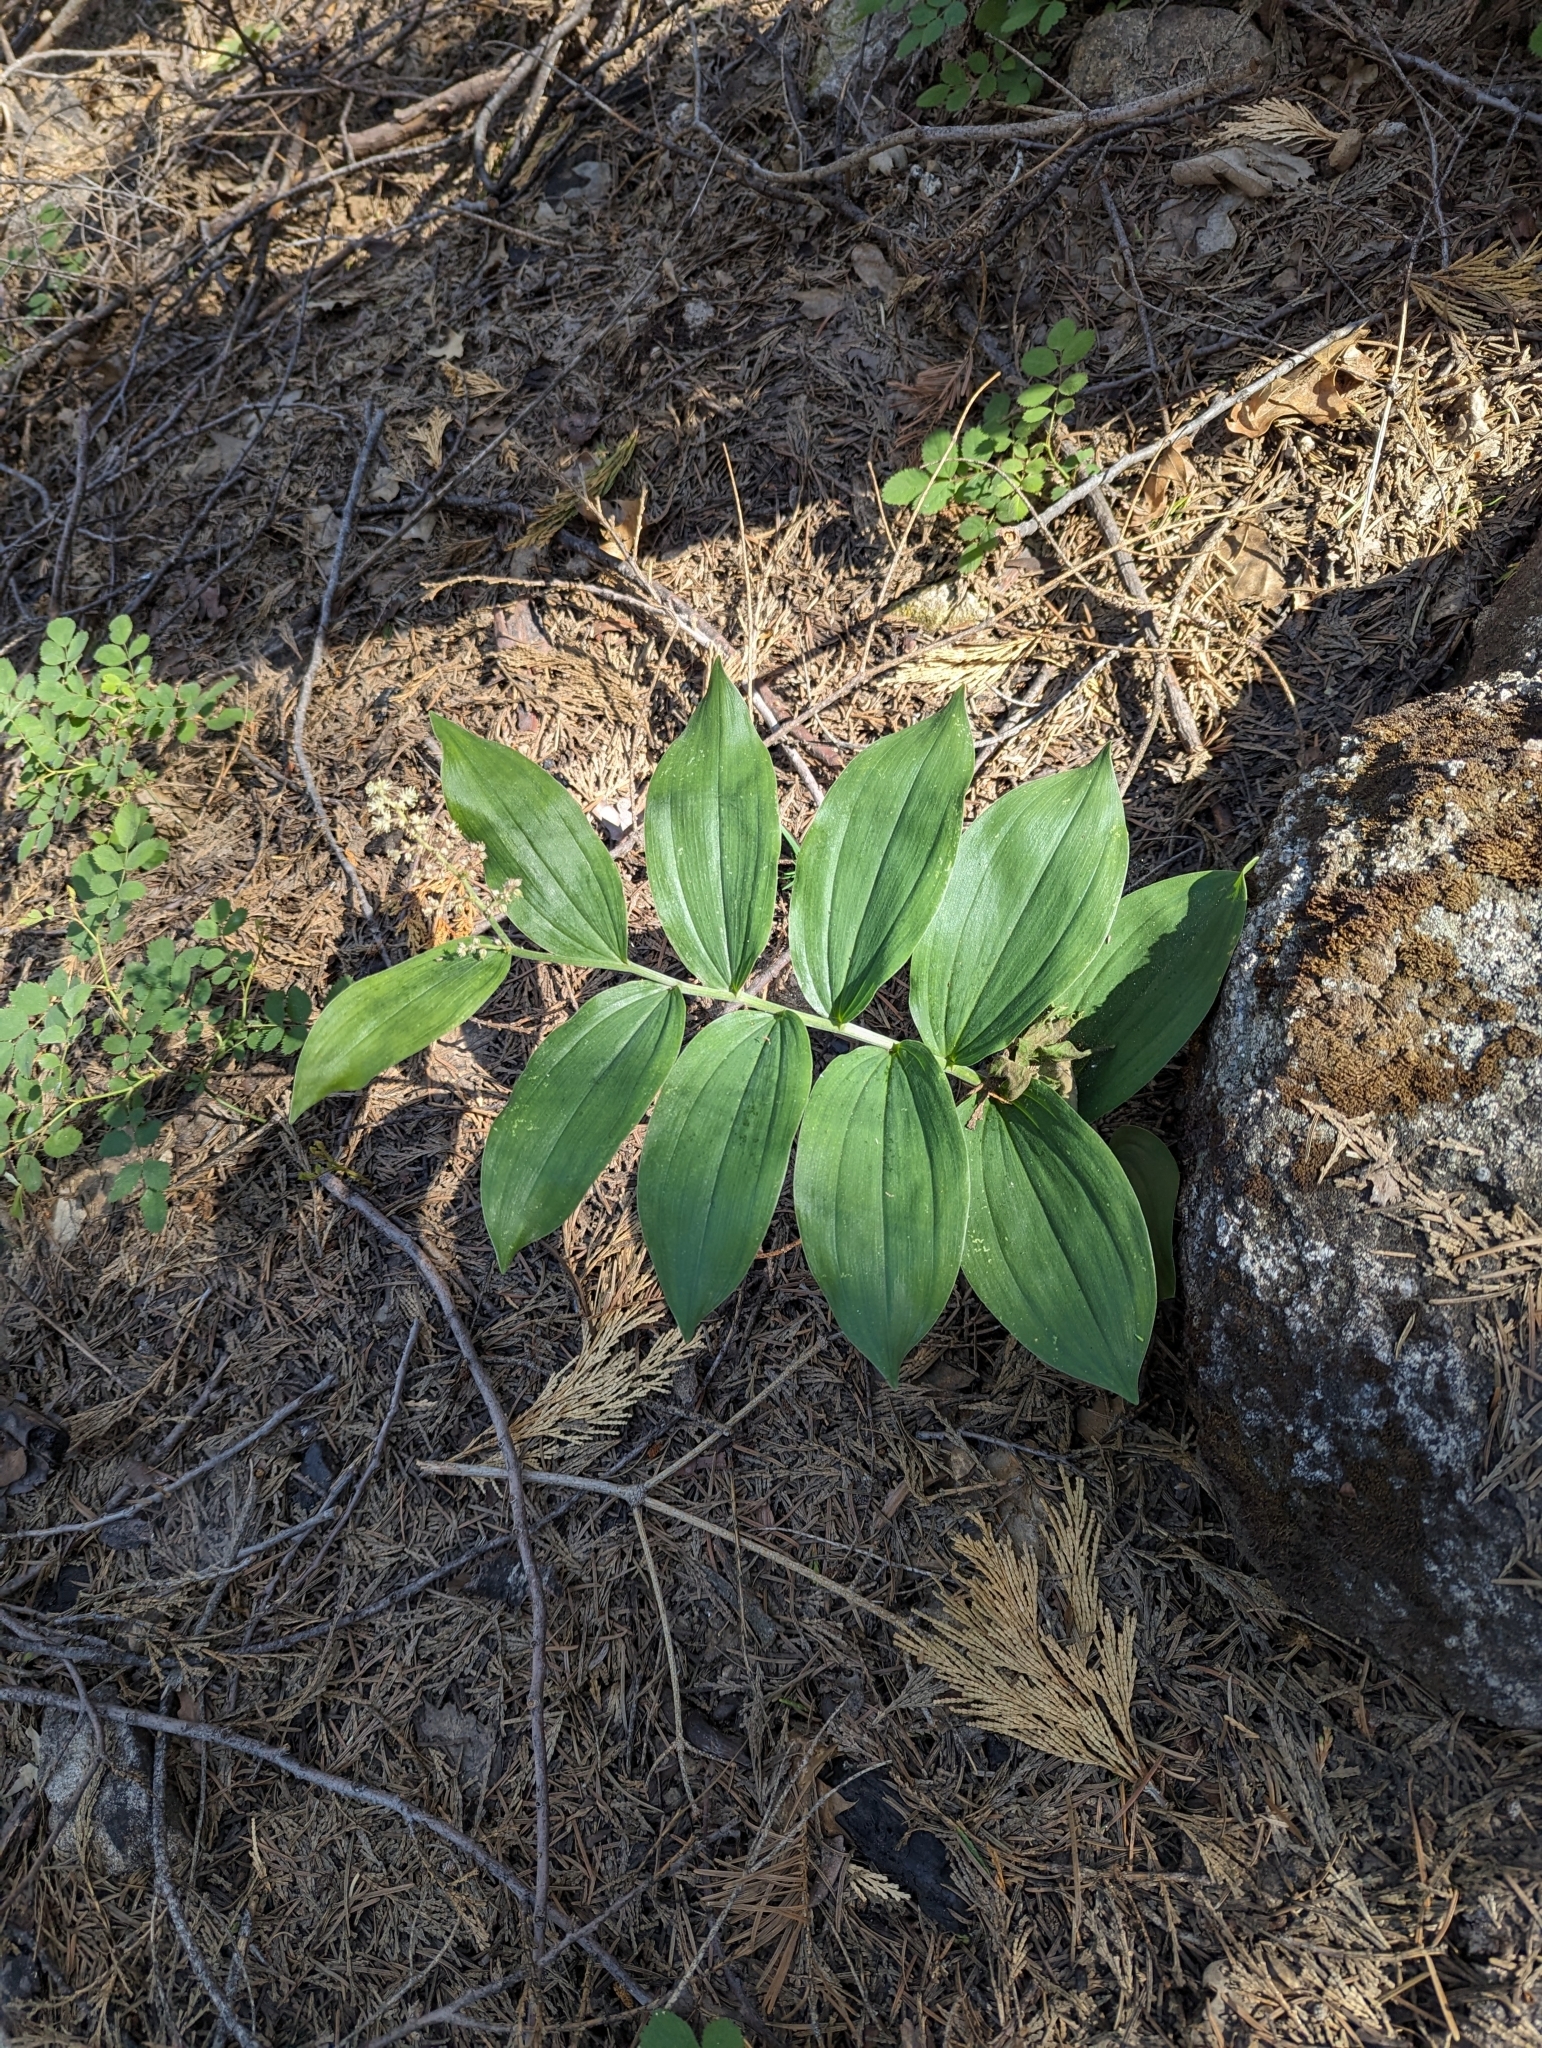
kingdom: Plantae
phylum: Tracheophyta
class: Liliopsida
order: Asparagales
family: Asparagaceae
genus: Maianthemum
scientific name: Maianthemum racemosum
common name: False spikenard
